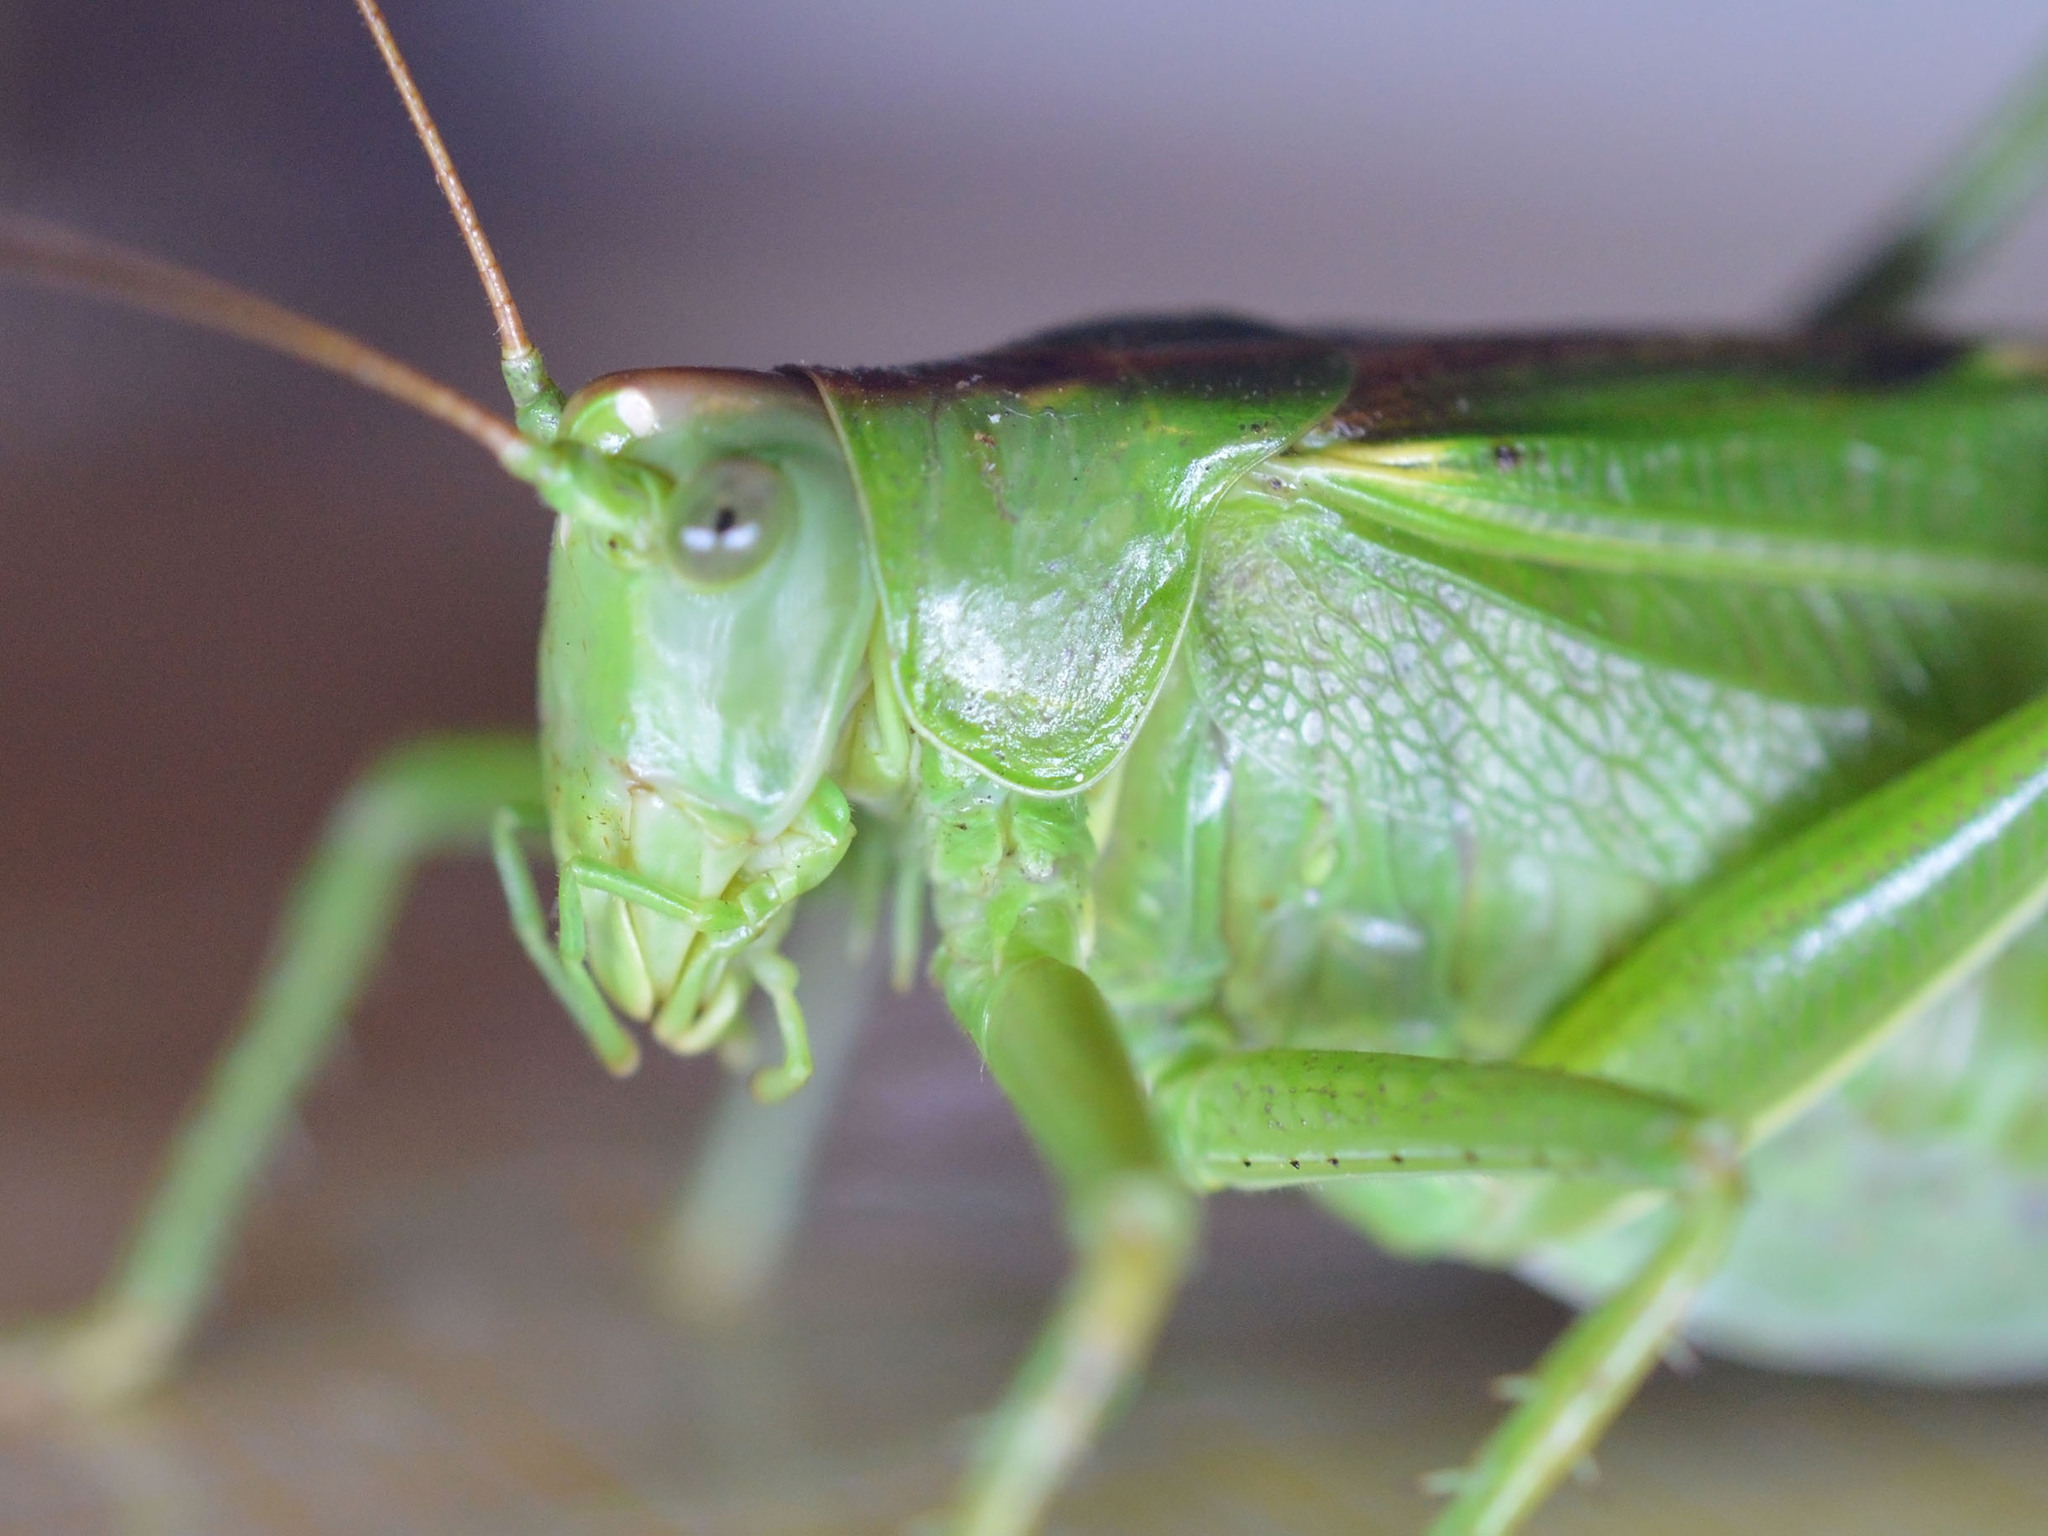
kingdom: Animalia
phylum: Arthropoda
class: Insecta
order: Orthoptera
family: Tettigoniidae
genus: Tettigonia
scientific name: Tettigonia viridissima
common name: Great green bush-cricket
